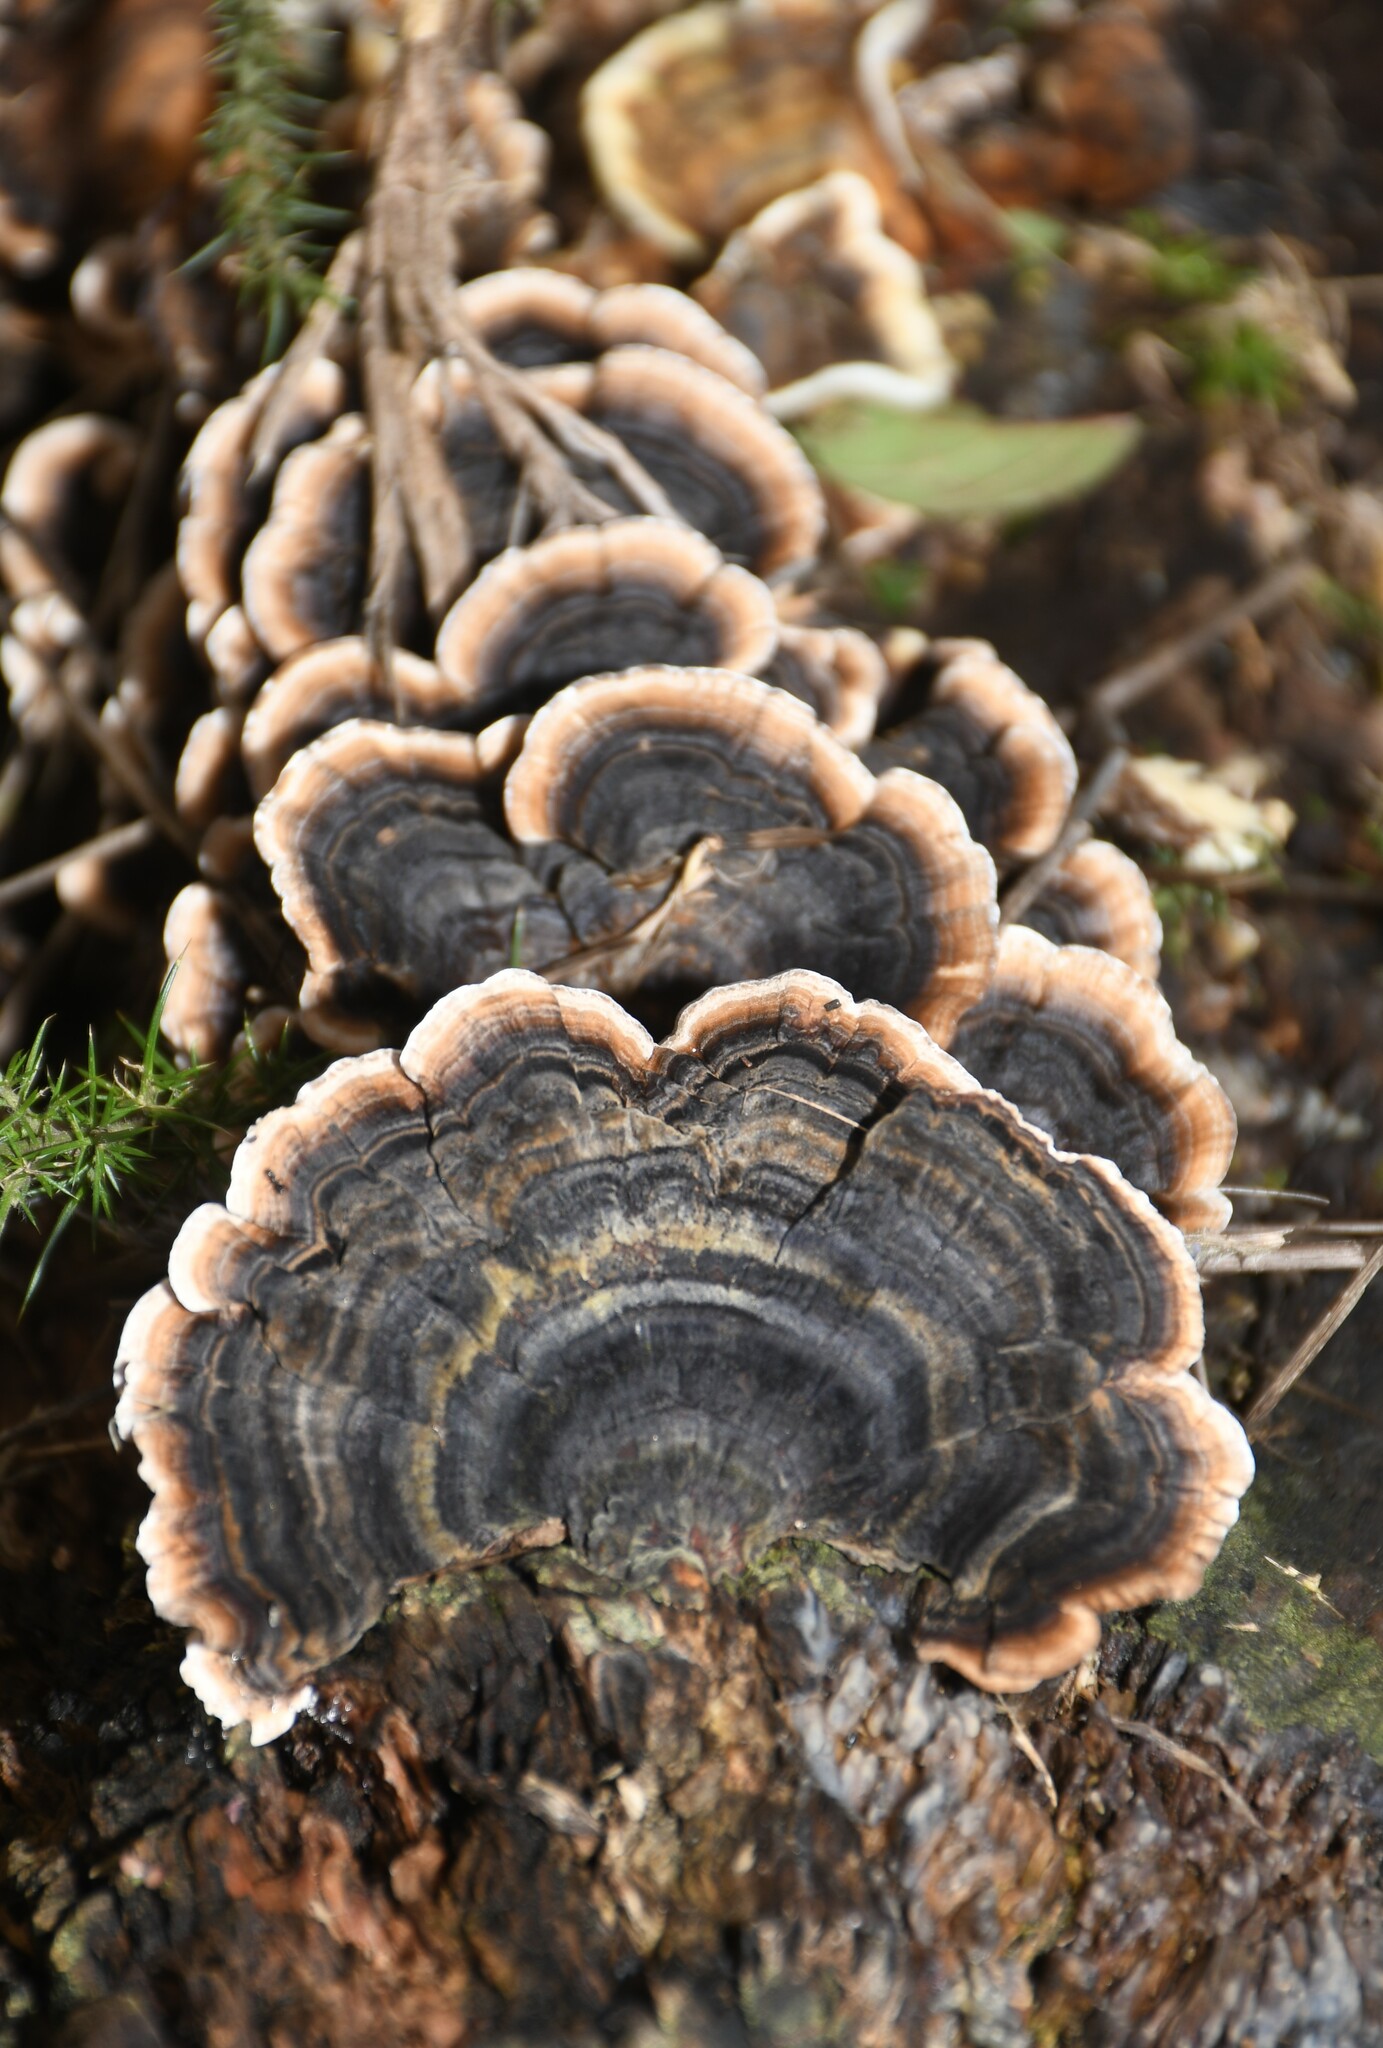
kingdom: Fungi
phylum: Basidiomycota
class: Agaricomycetes
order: Polyporales
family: Polyporaceae
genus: Trametes
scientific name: Trametes versicolor
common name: Turkeytail
